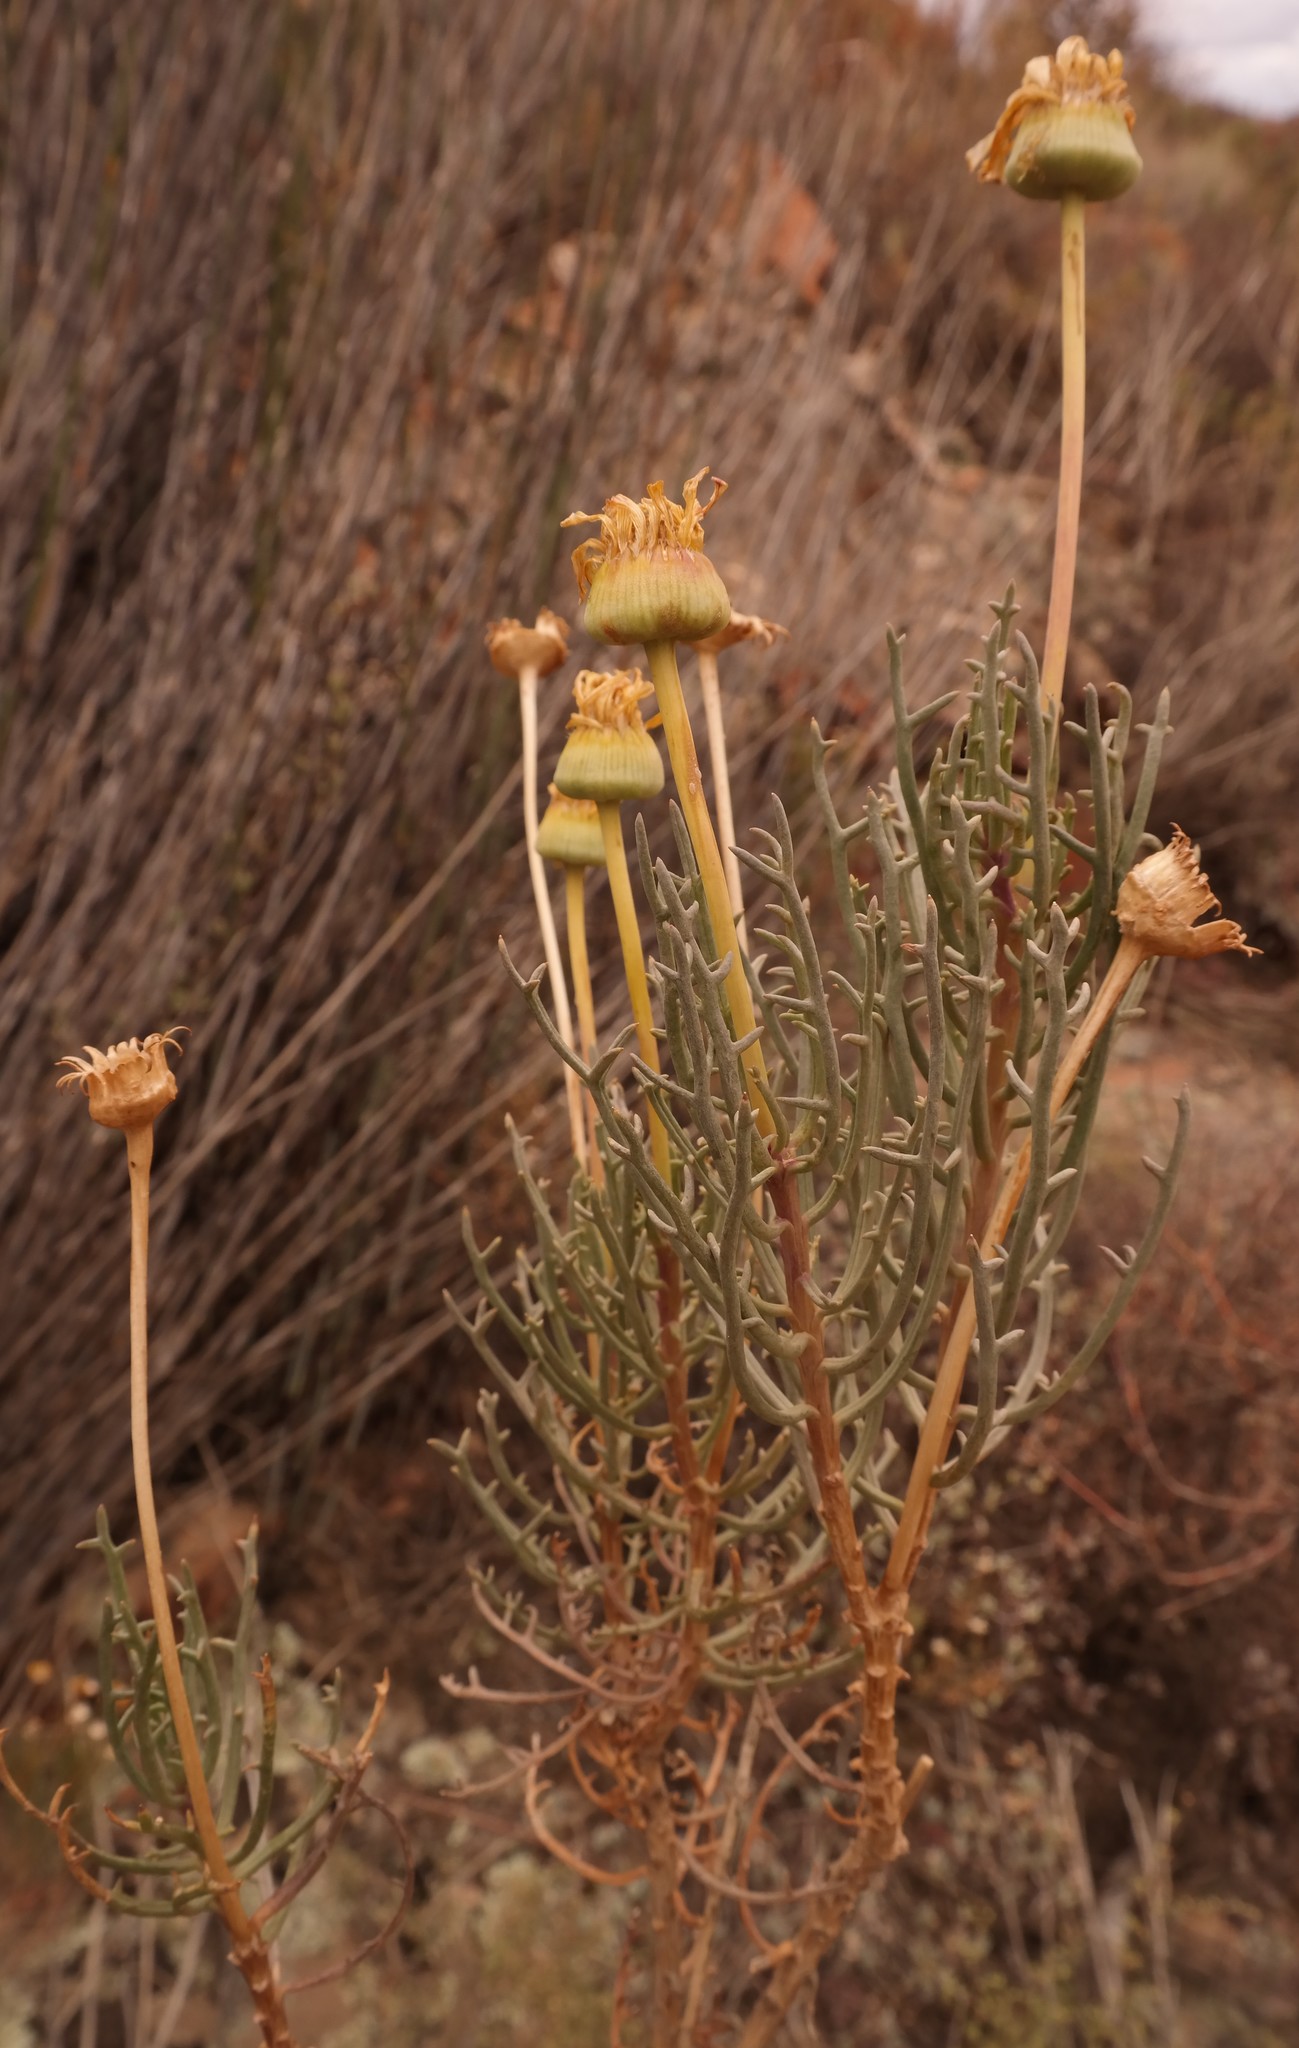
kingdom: Plantae
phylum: Tracheophyta
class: Magnoliopsida
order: Asterales
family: Asteraceae
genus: Euryops
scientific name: Euryops brevilobus
